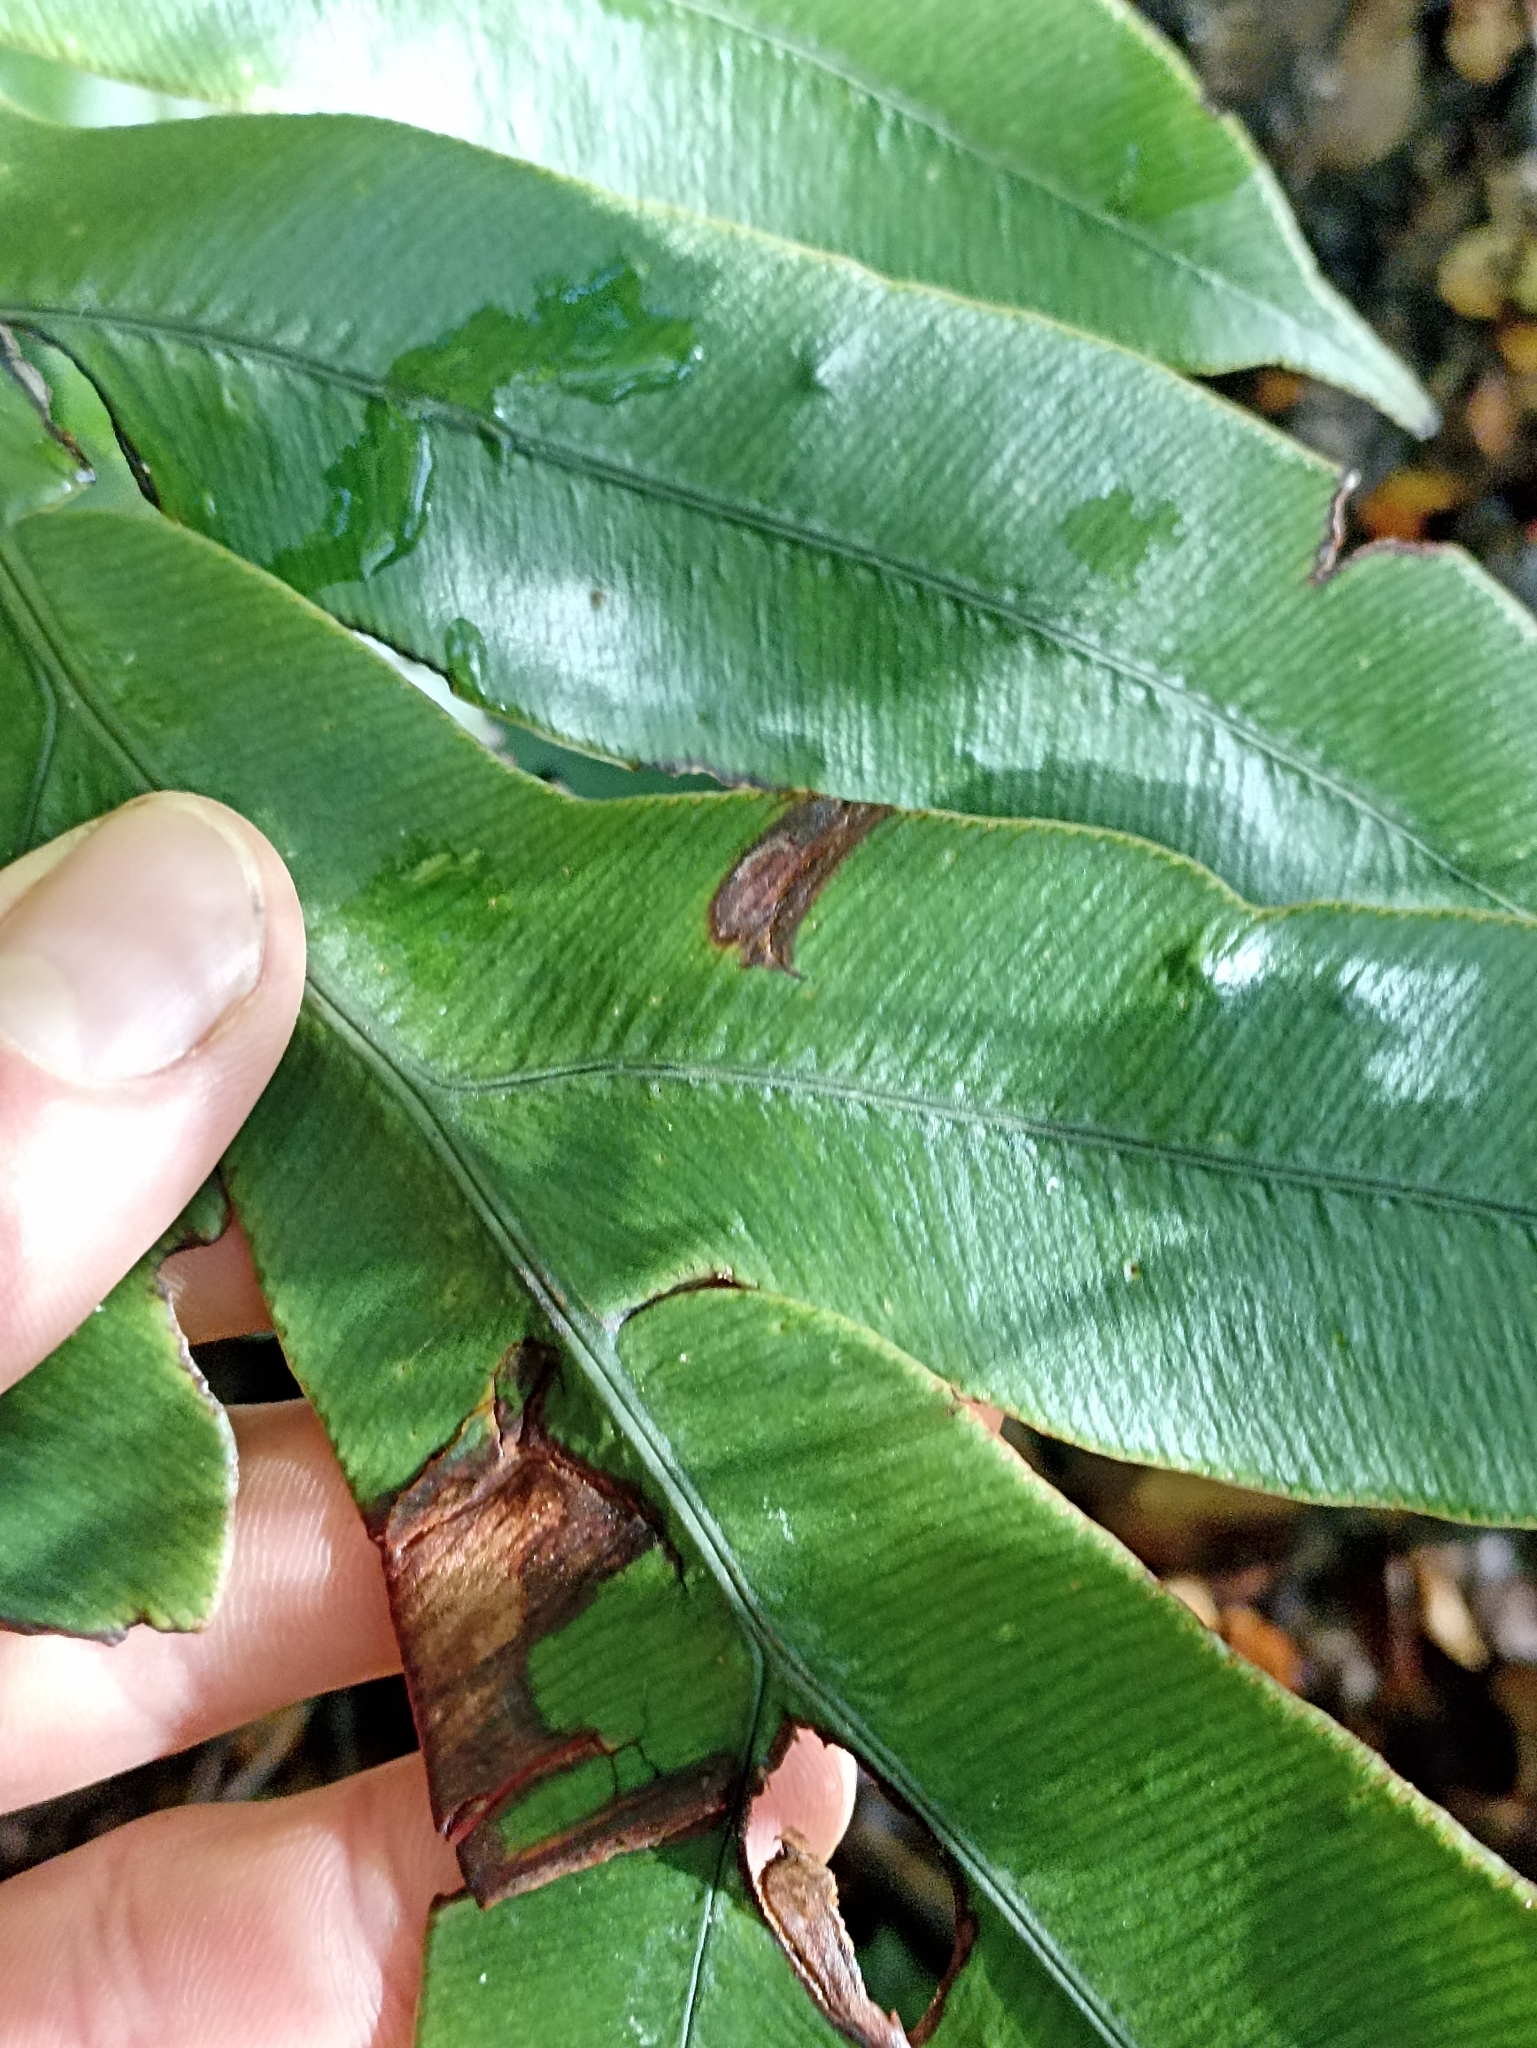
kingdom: Plantae
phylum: Tracheophyta
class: Polypodiopsida
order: Polypodiales
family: Blechnaceae
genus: Austroblechnum
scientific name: Austroblechnum colensoi
